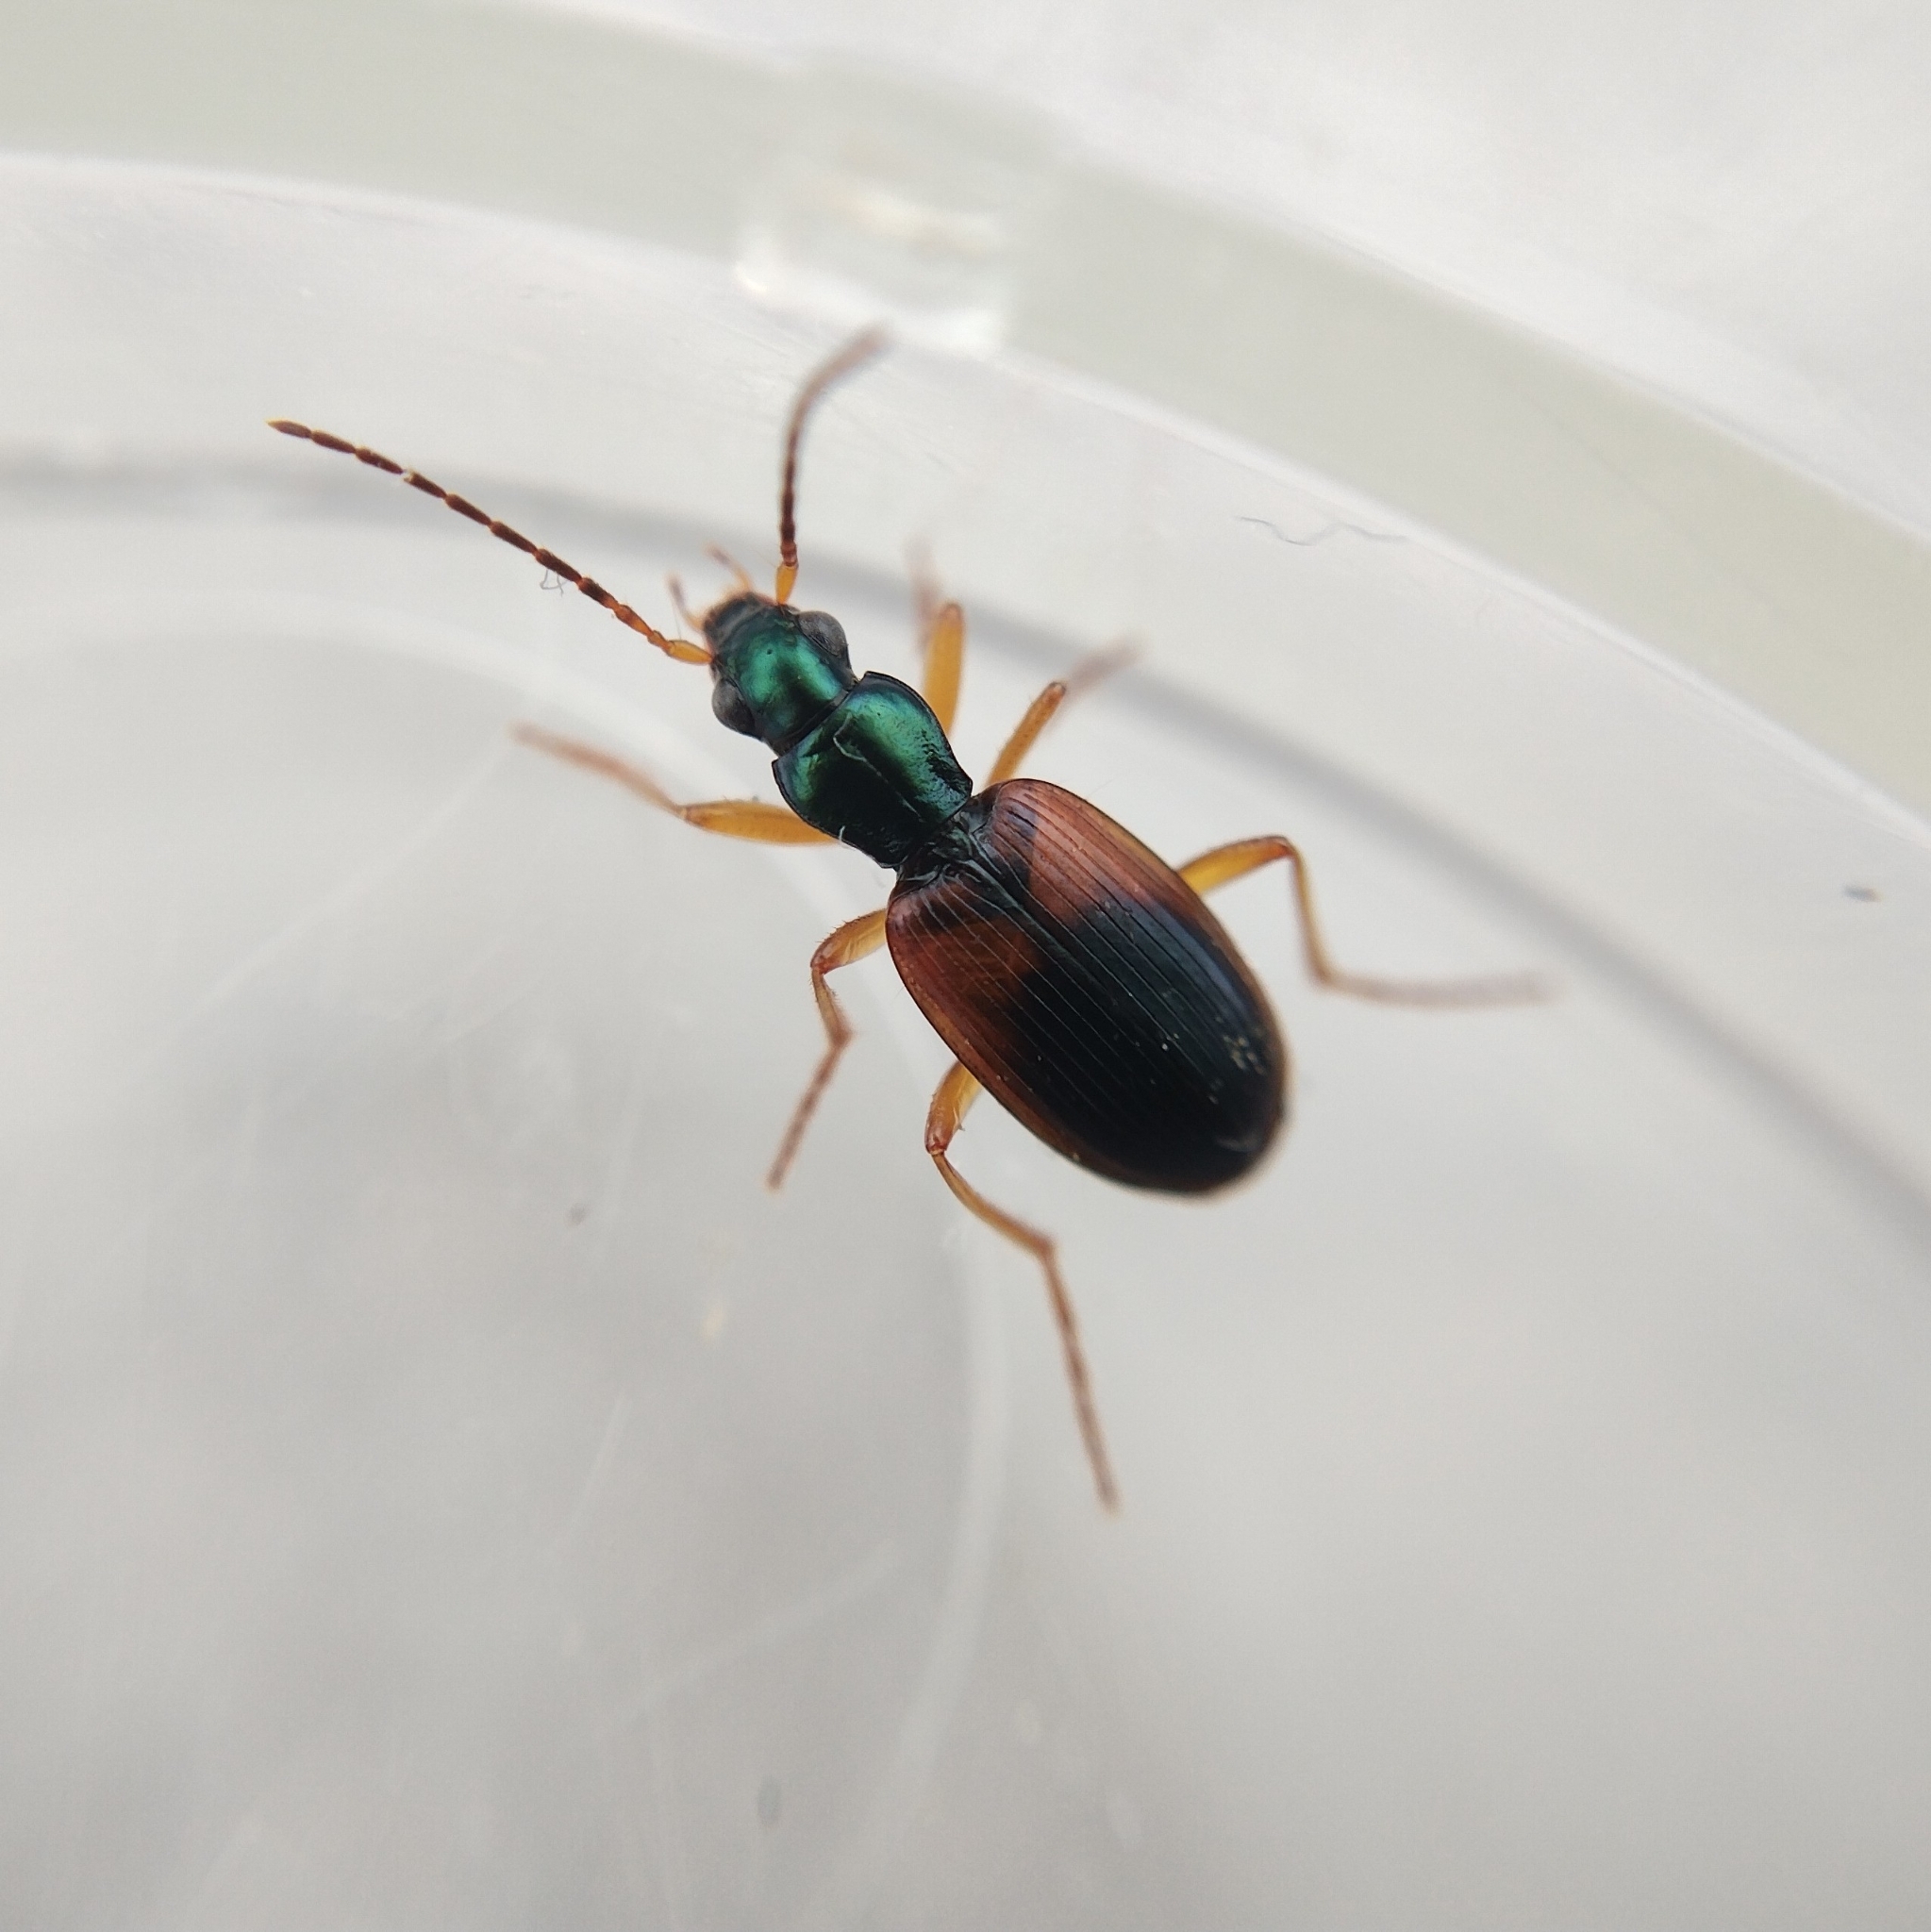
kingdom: Animalia
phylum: Arthropoda
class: Insecta
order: Coleoptera
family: Carabidae
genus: Anchomenus
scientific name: Anchomenus dorsalis
